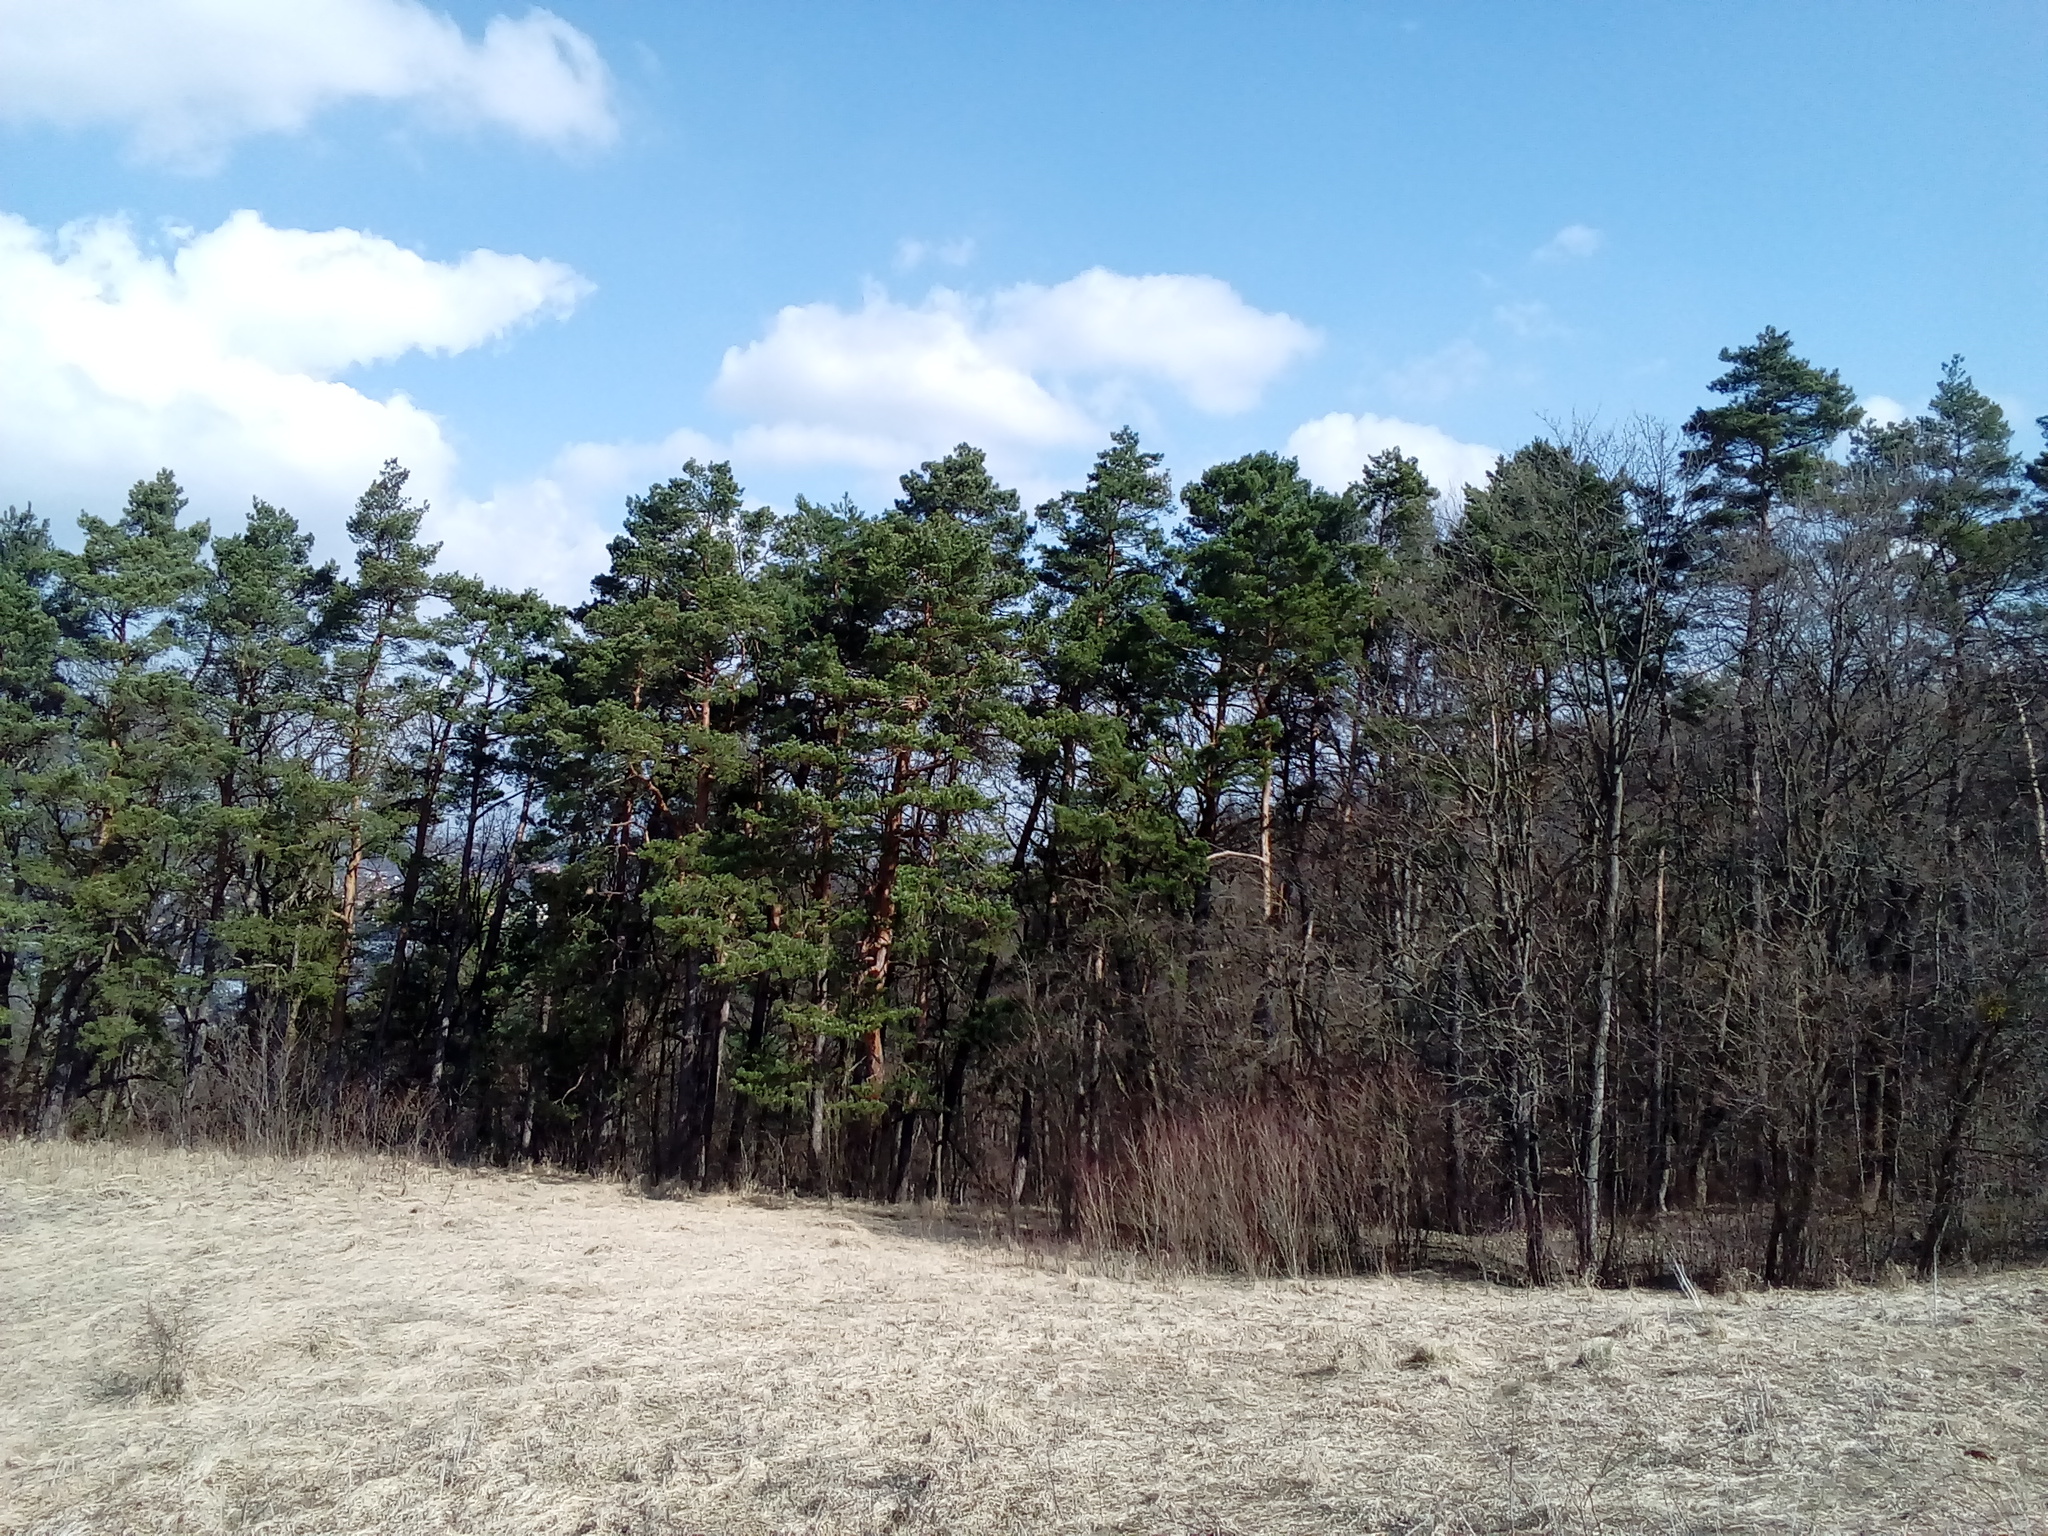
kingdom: Plantae
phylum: Tracheophyta
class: Pinopsida
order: Pinales
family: Pinaceae
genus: Pinus
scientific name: Pinus sylvestris
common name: Scots pine
